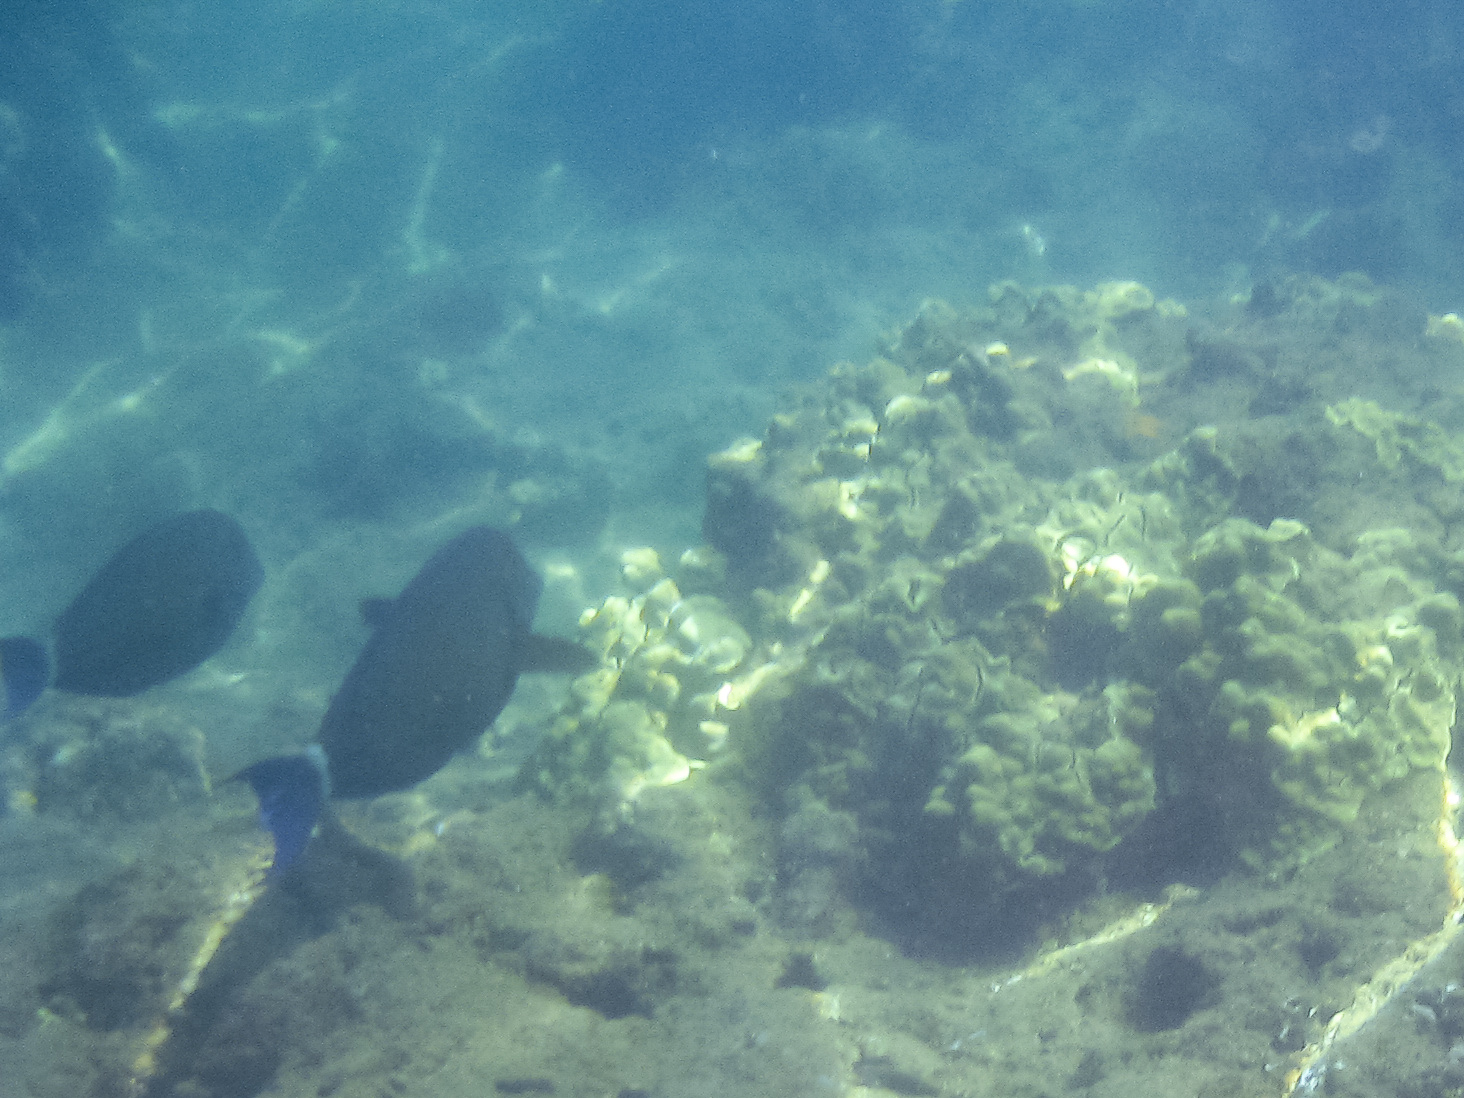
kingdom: Animalia
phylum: Chordata
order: Perciformes
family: Acanthuridae
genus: Acanthurus
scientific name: Acanthurus blochii
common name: Blue-banded pualu
